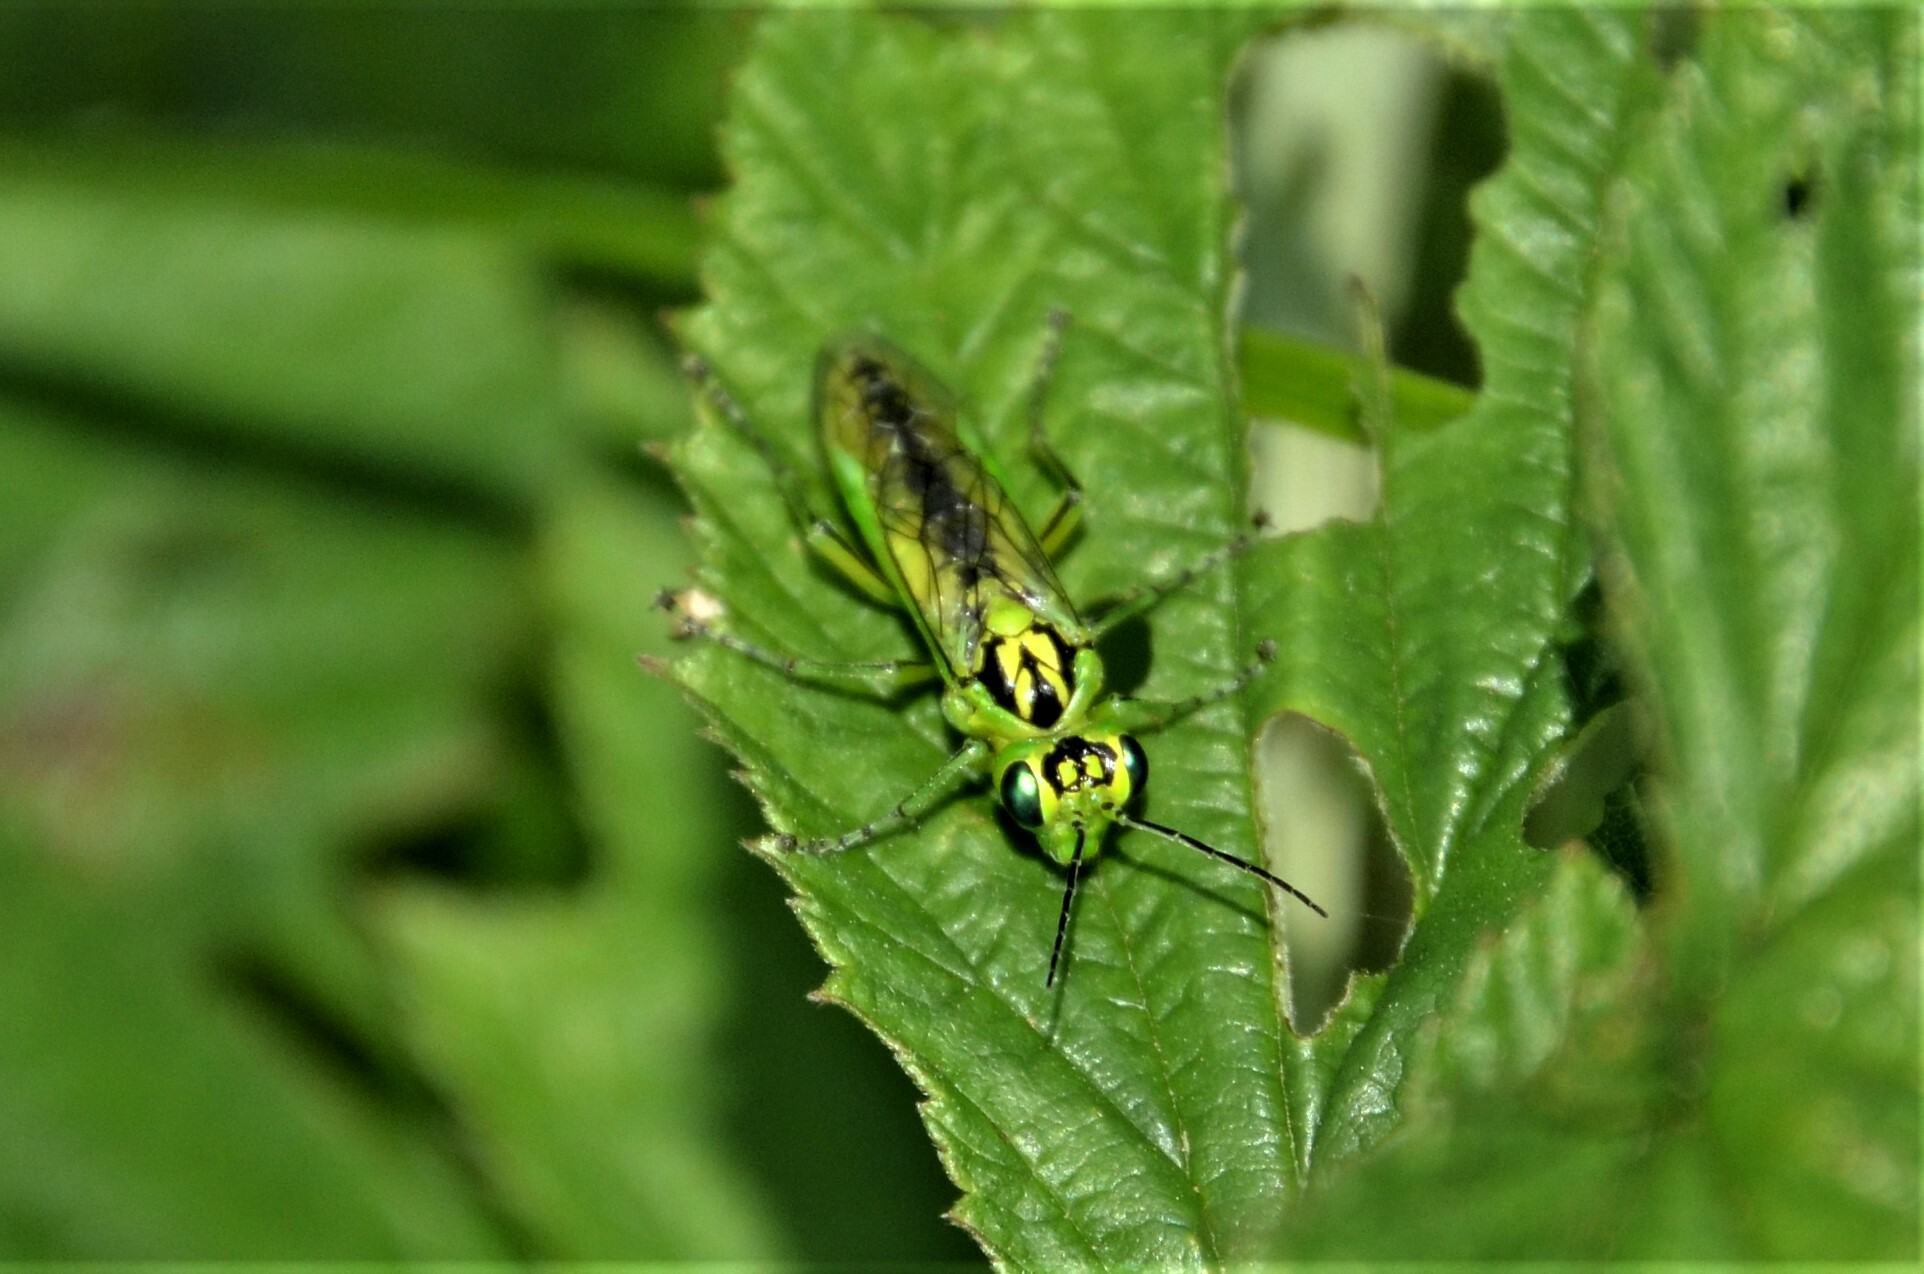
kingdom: Animalia
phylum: Arthropoda
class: Insecta
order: Hymenoptera
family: Tenthredinidae
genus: Rhogogaster
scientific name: Rhogogaster chlorosoma
